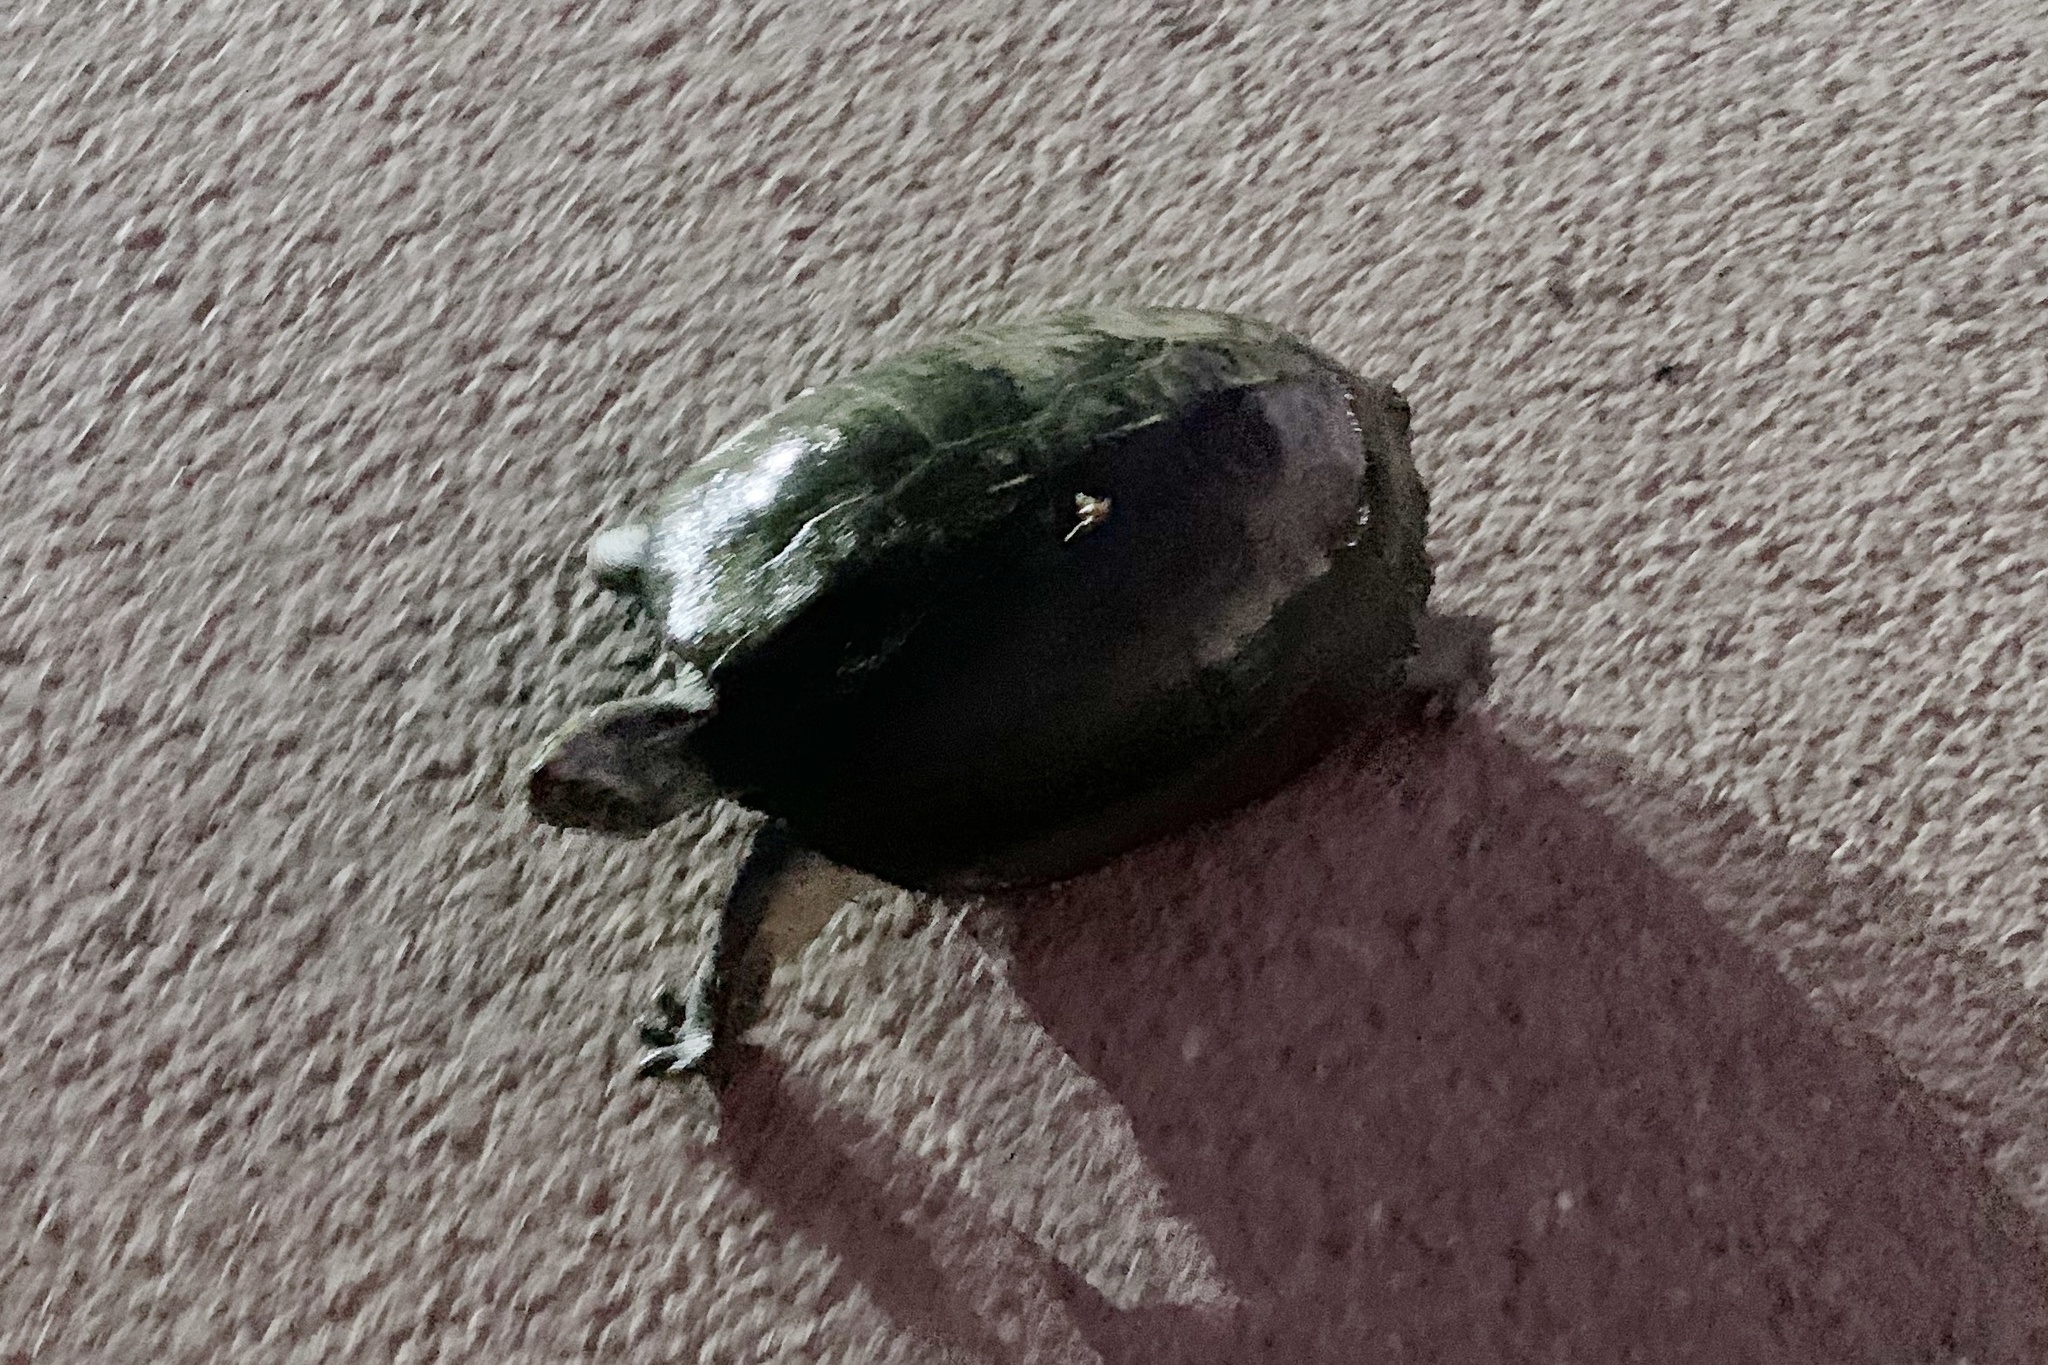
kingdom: Animalia
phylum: Chordata
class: Testudines
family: Geoemydidae
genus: Heosemys
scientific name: Heosemys annandalii
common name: Yellow-headed temple turtle
